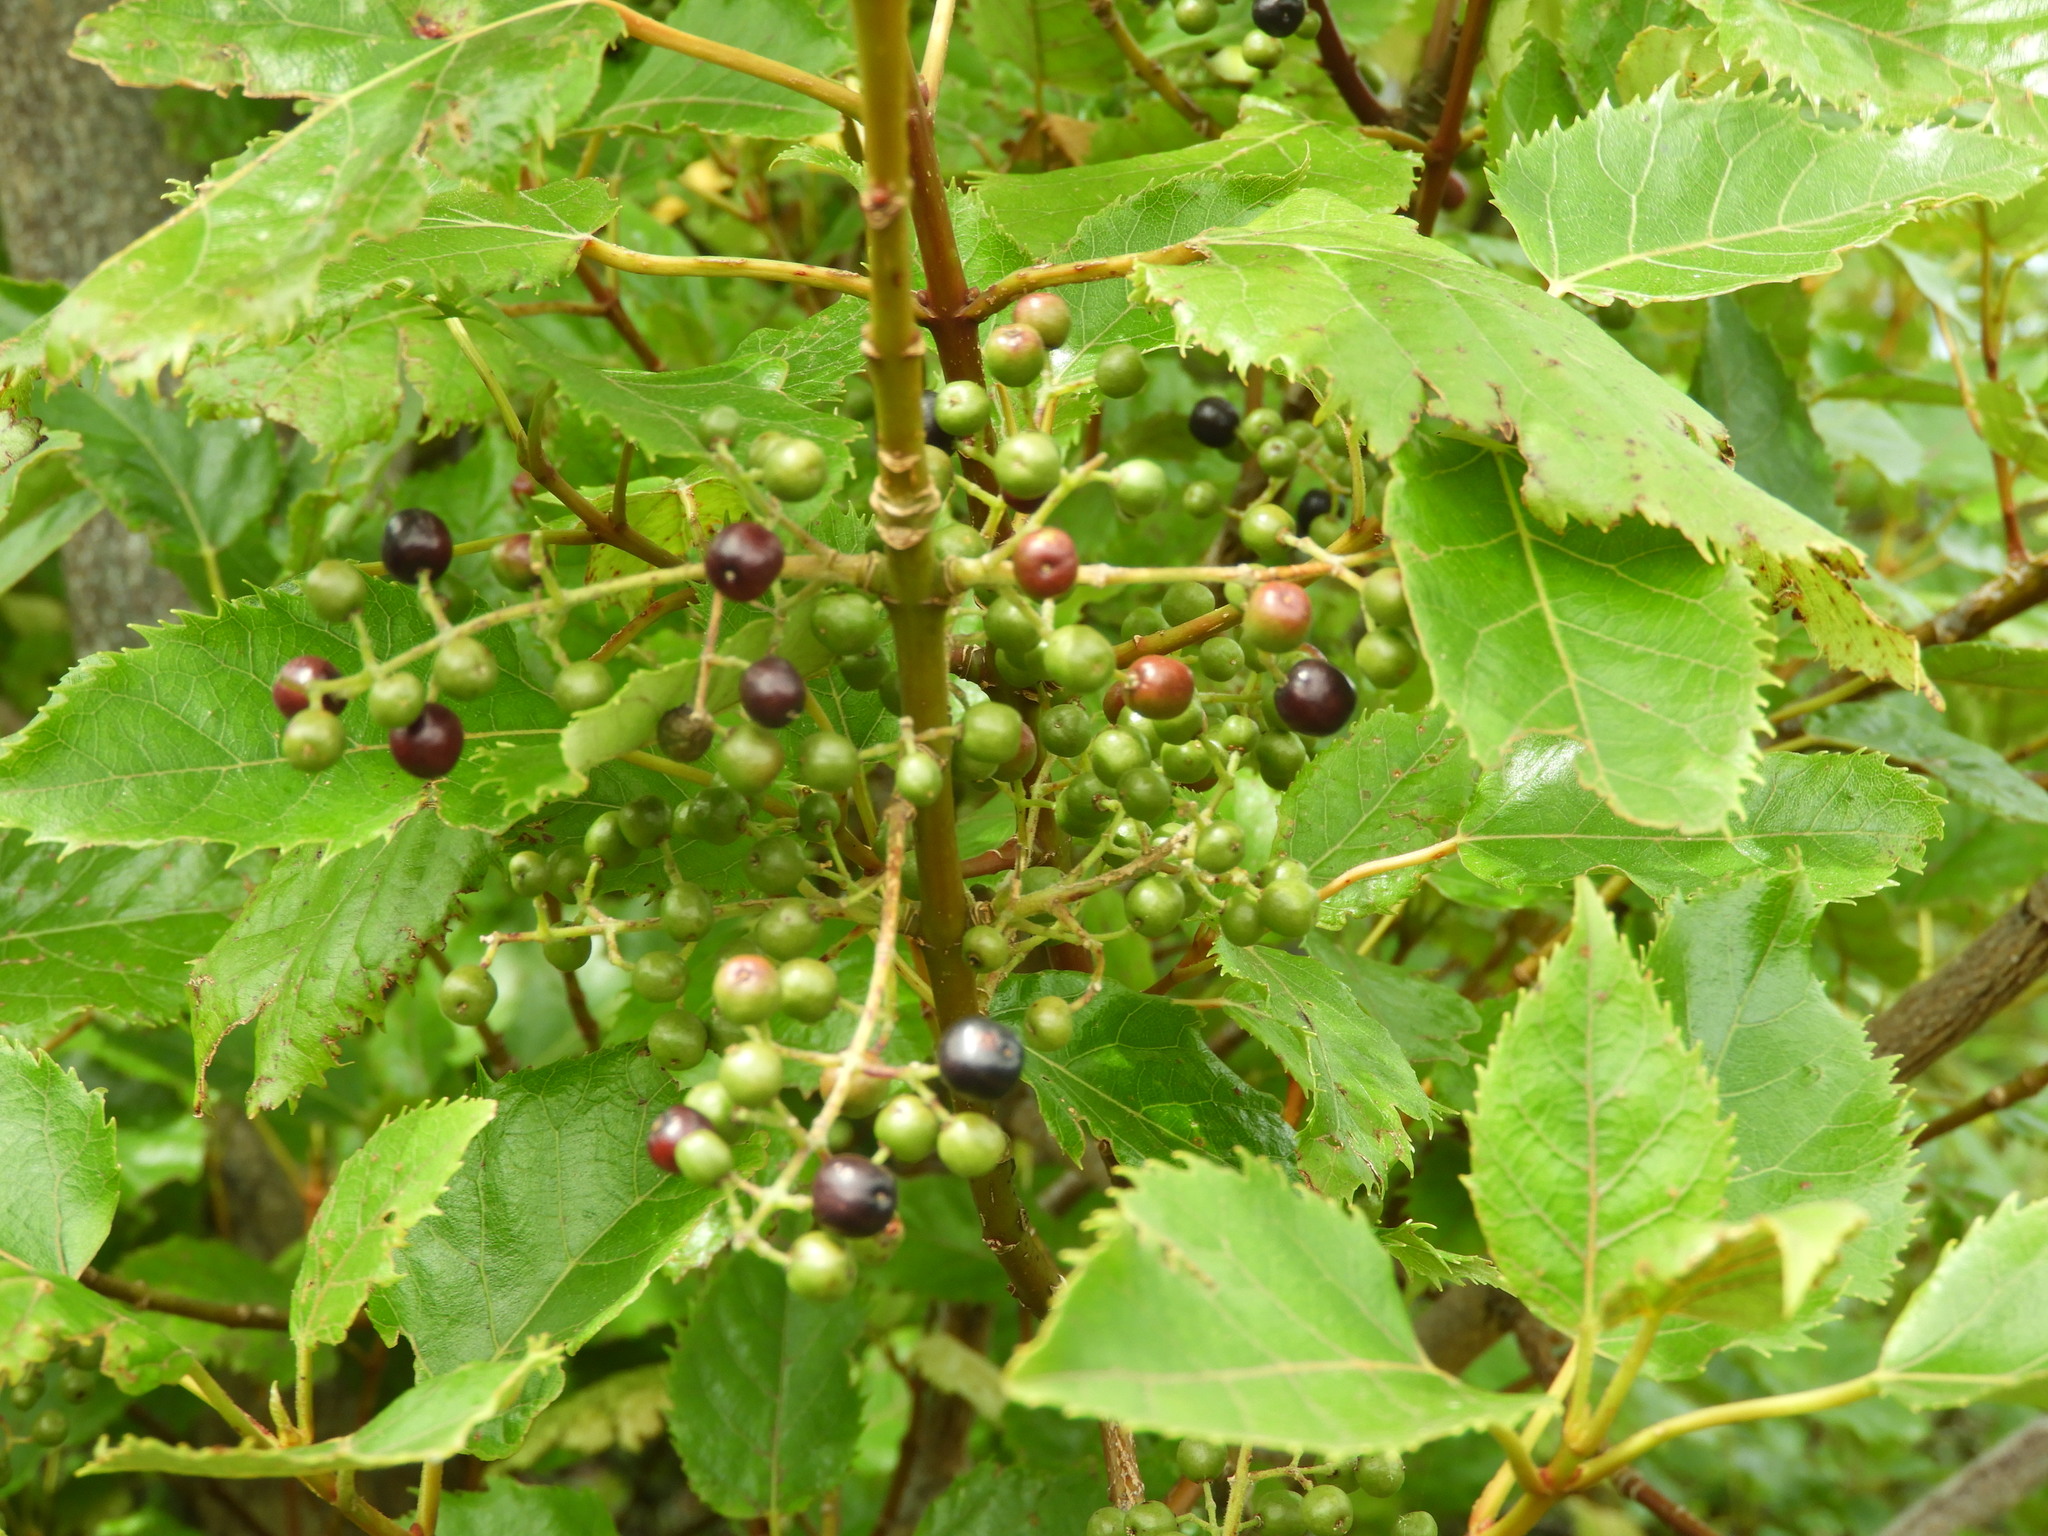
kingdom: Plantae
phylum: Tracheophyta
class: Magnoliopsida
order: Oxalidales
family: Elaeocarpaceae
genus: Aristotelia
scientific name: Aristotelia serrata
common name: New zealand wineberry
